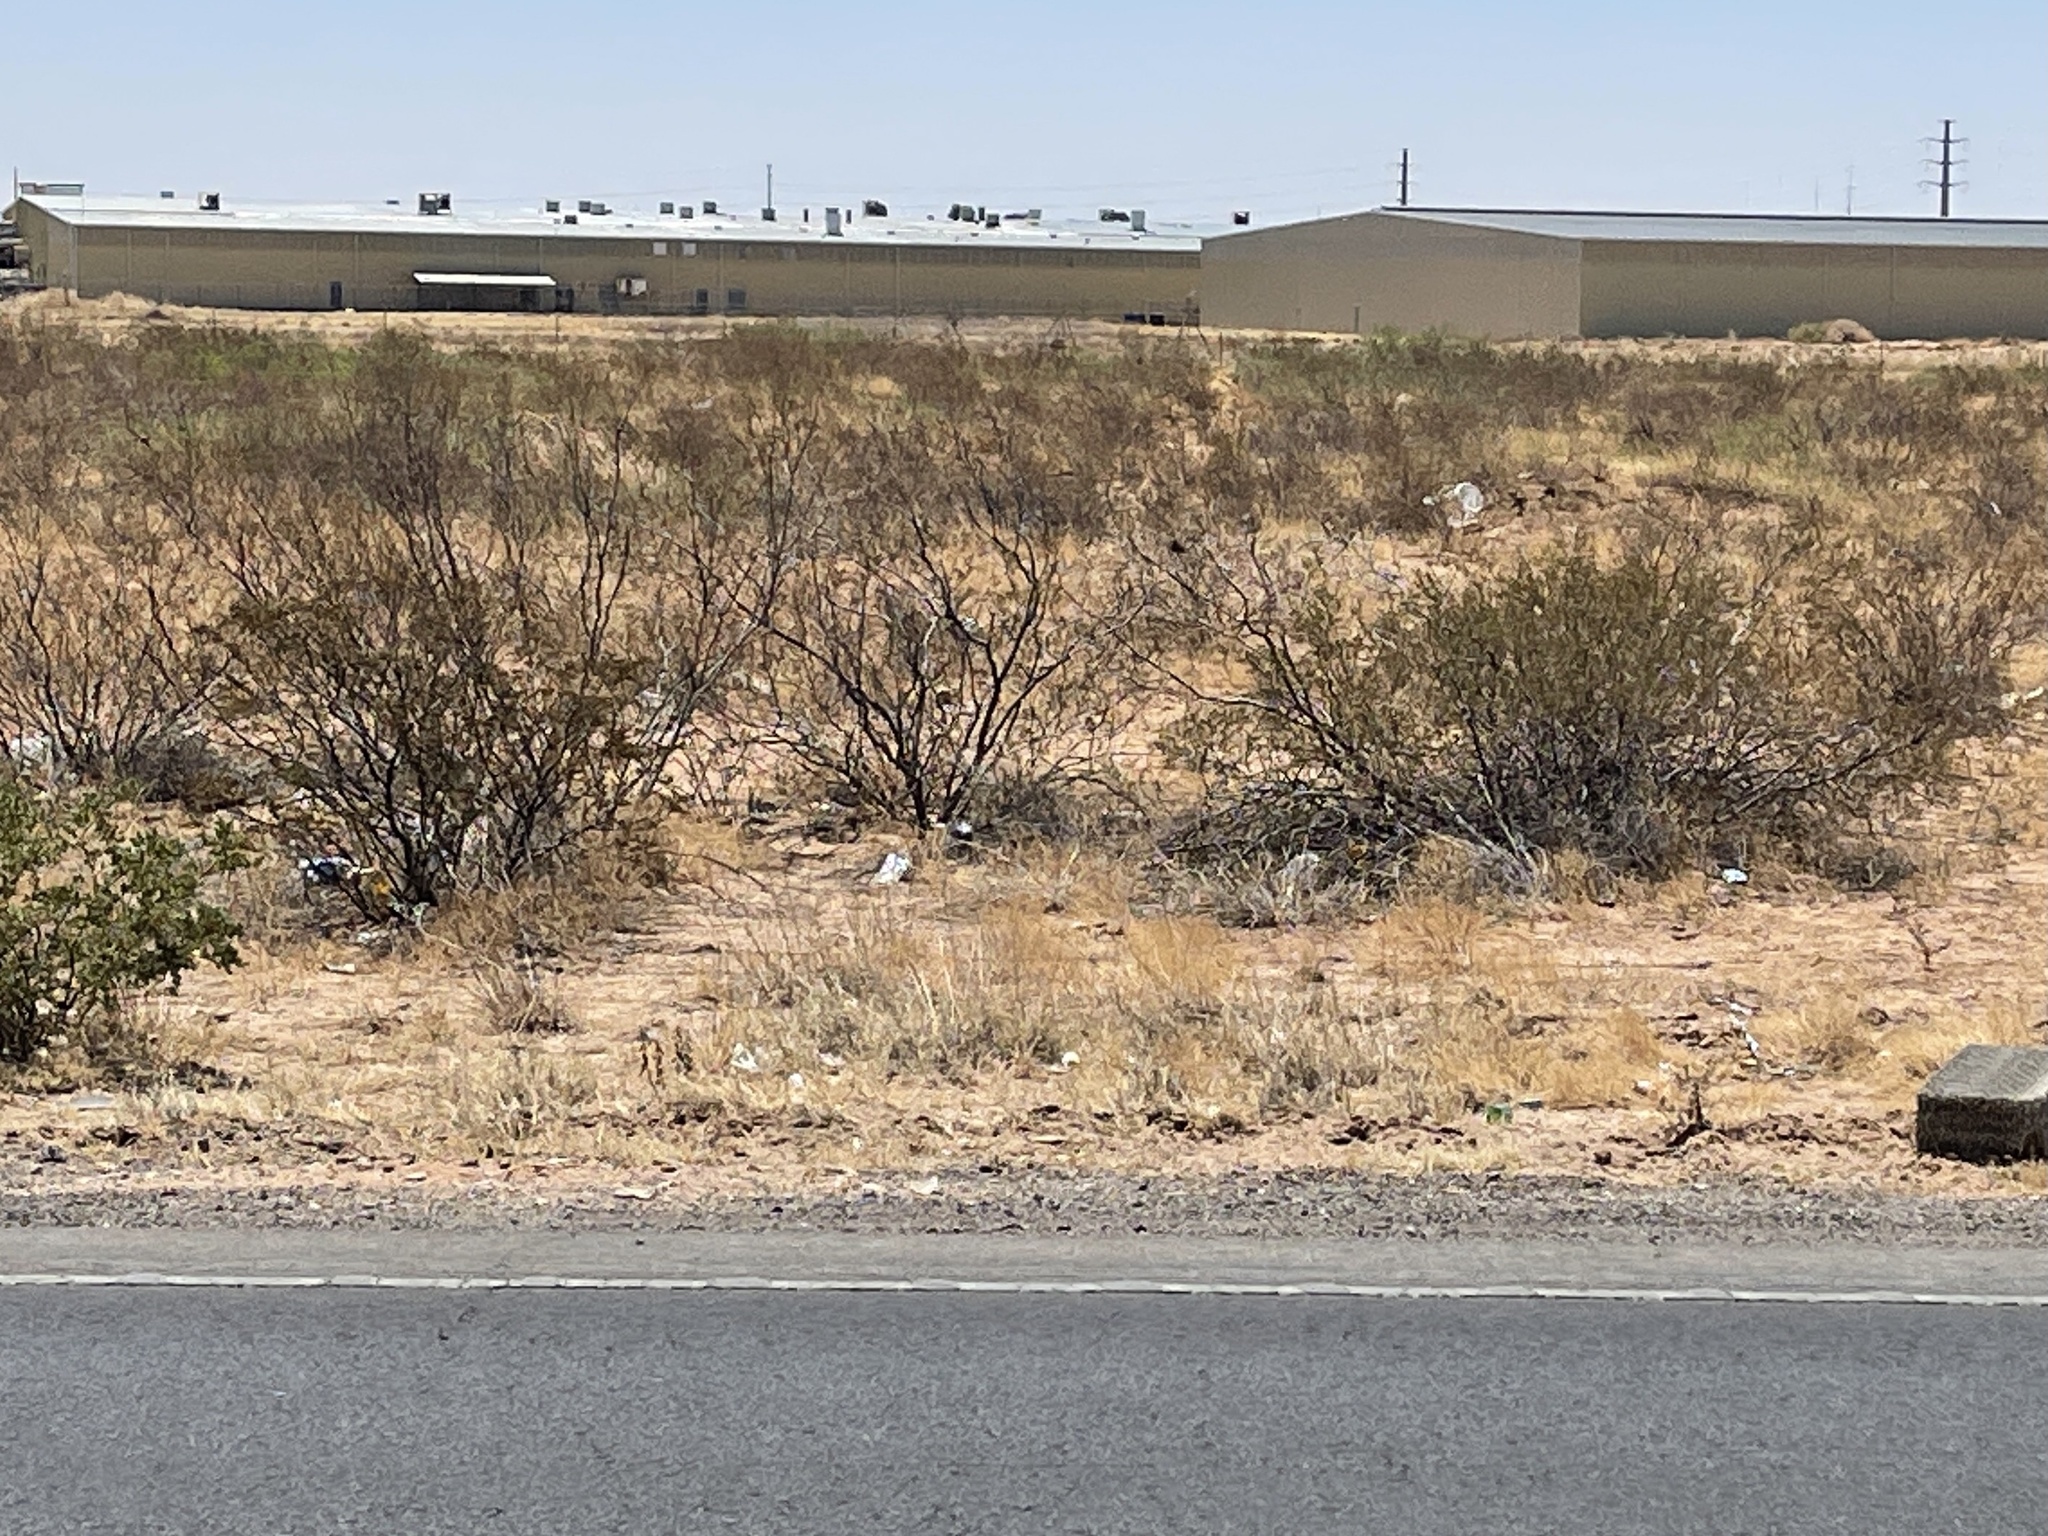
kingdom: Plantae
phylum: Tracheophyta
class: Magnoliopsida
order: Zygophyllales
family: Zygophyllaceae
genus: Larrea
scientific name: Larrea tridentata
